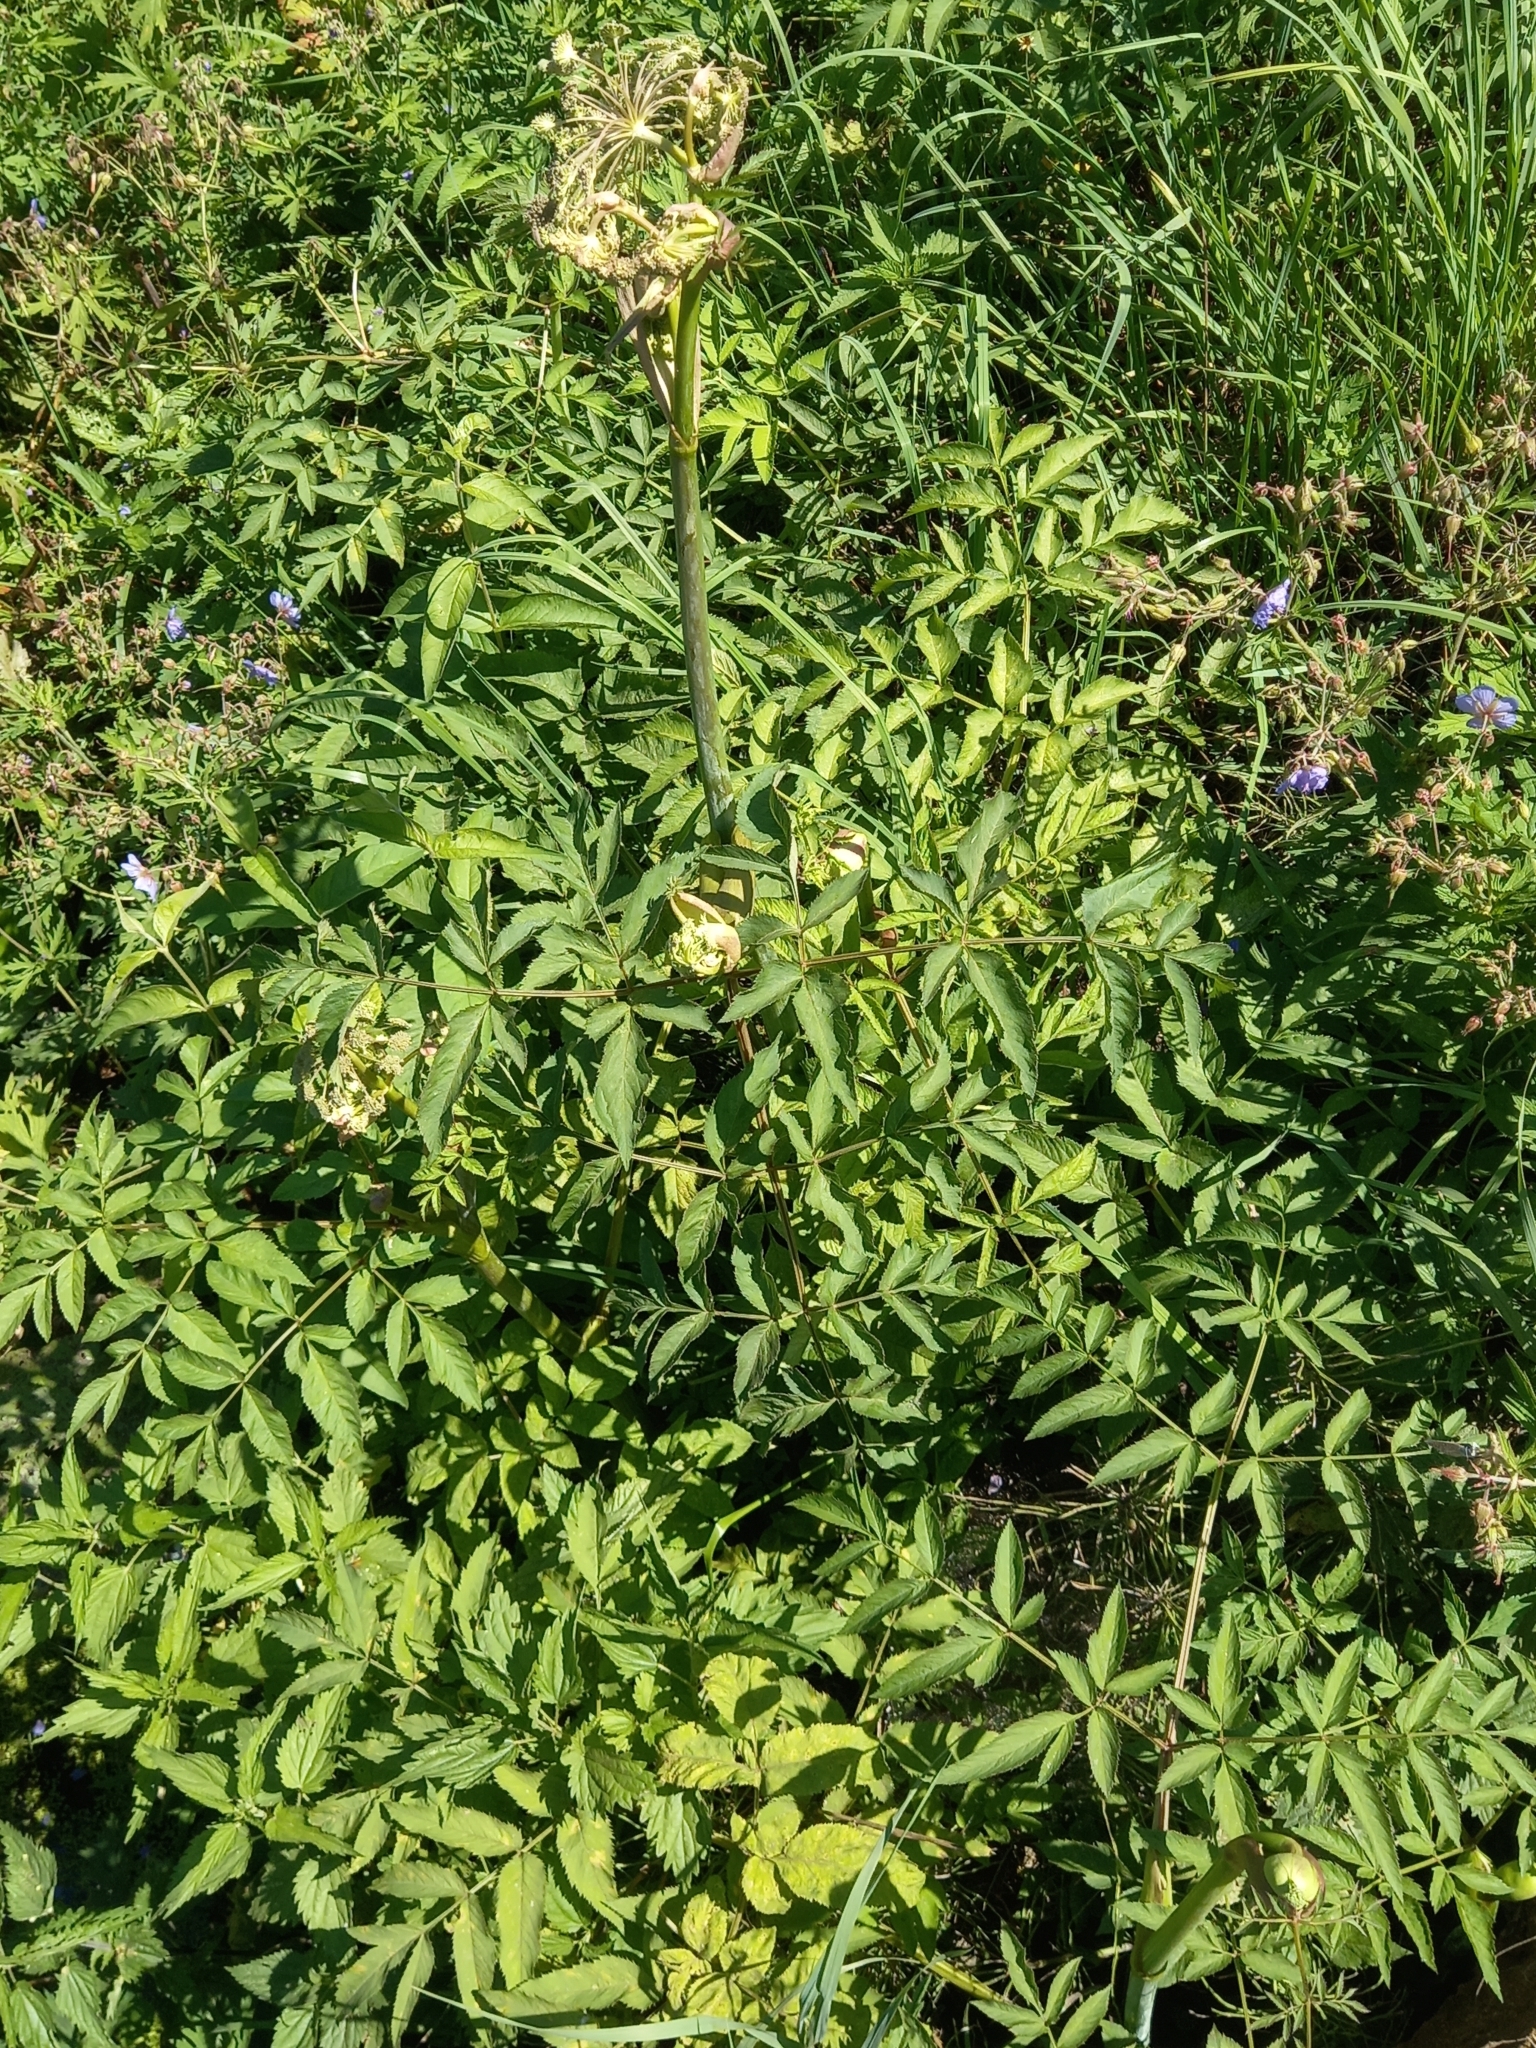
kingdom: Plantae
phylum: Tracheophyta
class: Magnoliopsida
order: Apiales
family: Apiaceae
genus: Angelica
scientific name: Angelica sylvestris
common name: Wild angelica
